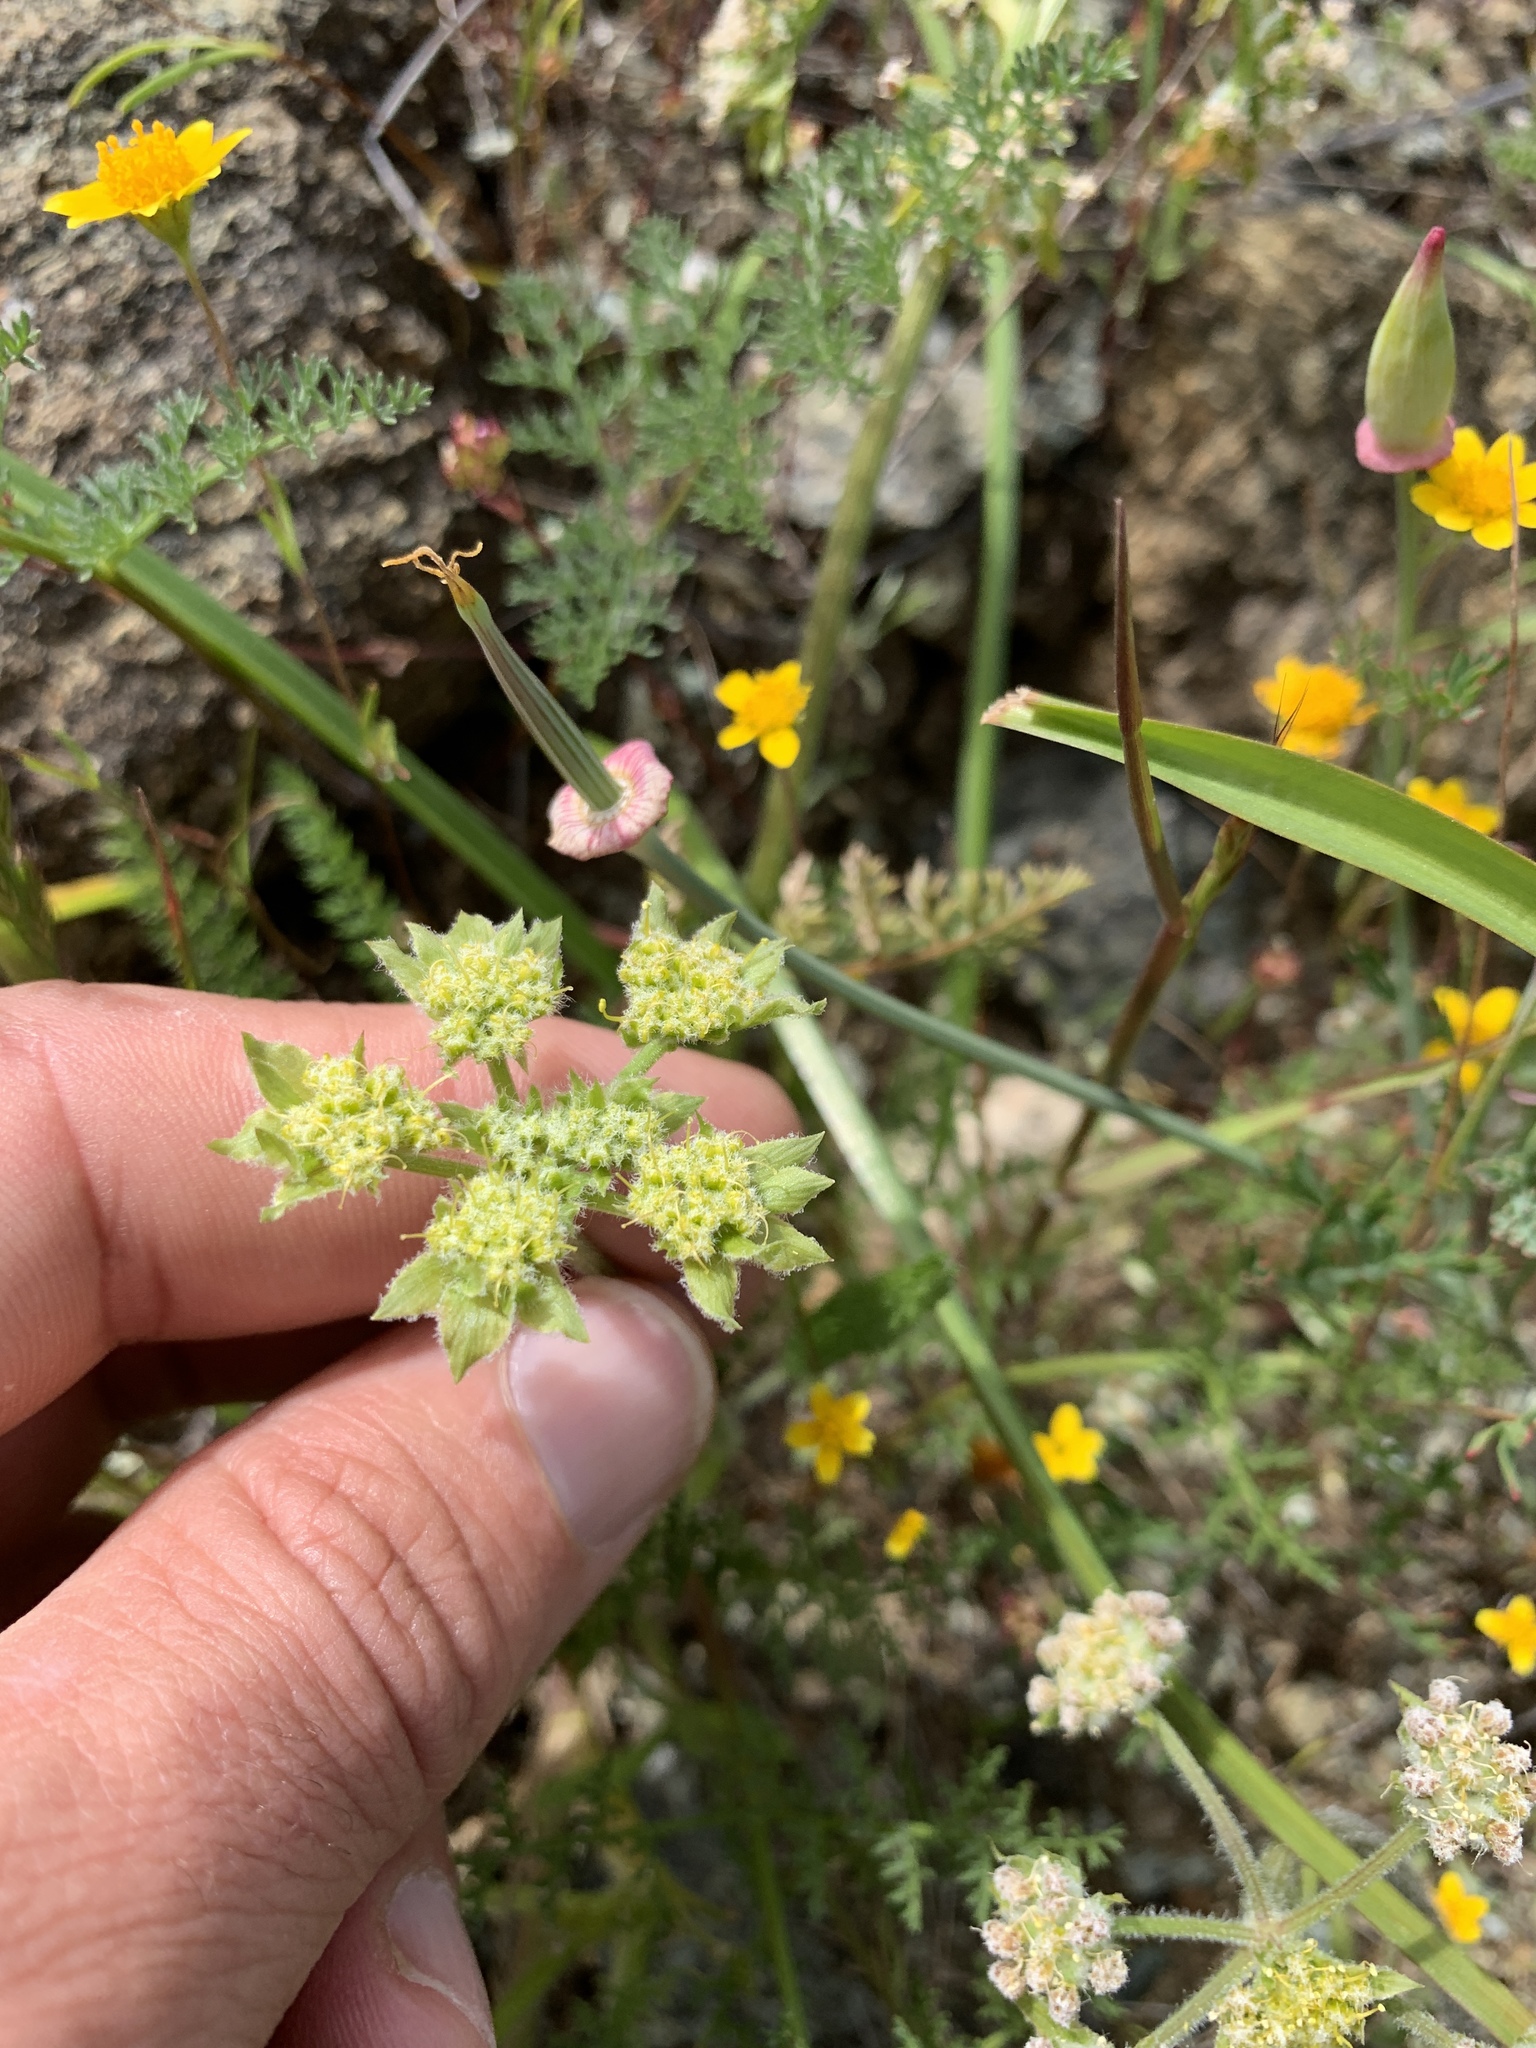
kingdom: Plantae
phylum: Tracheophyta
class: Magnoliopsida
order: Apiales
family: Apiaceae
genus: Lomatium
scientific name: Lomatium dasycarpum
